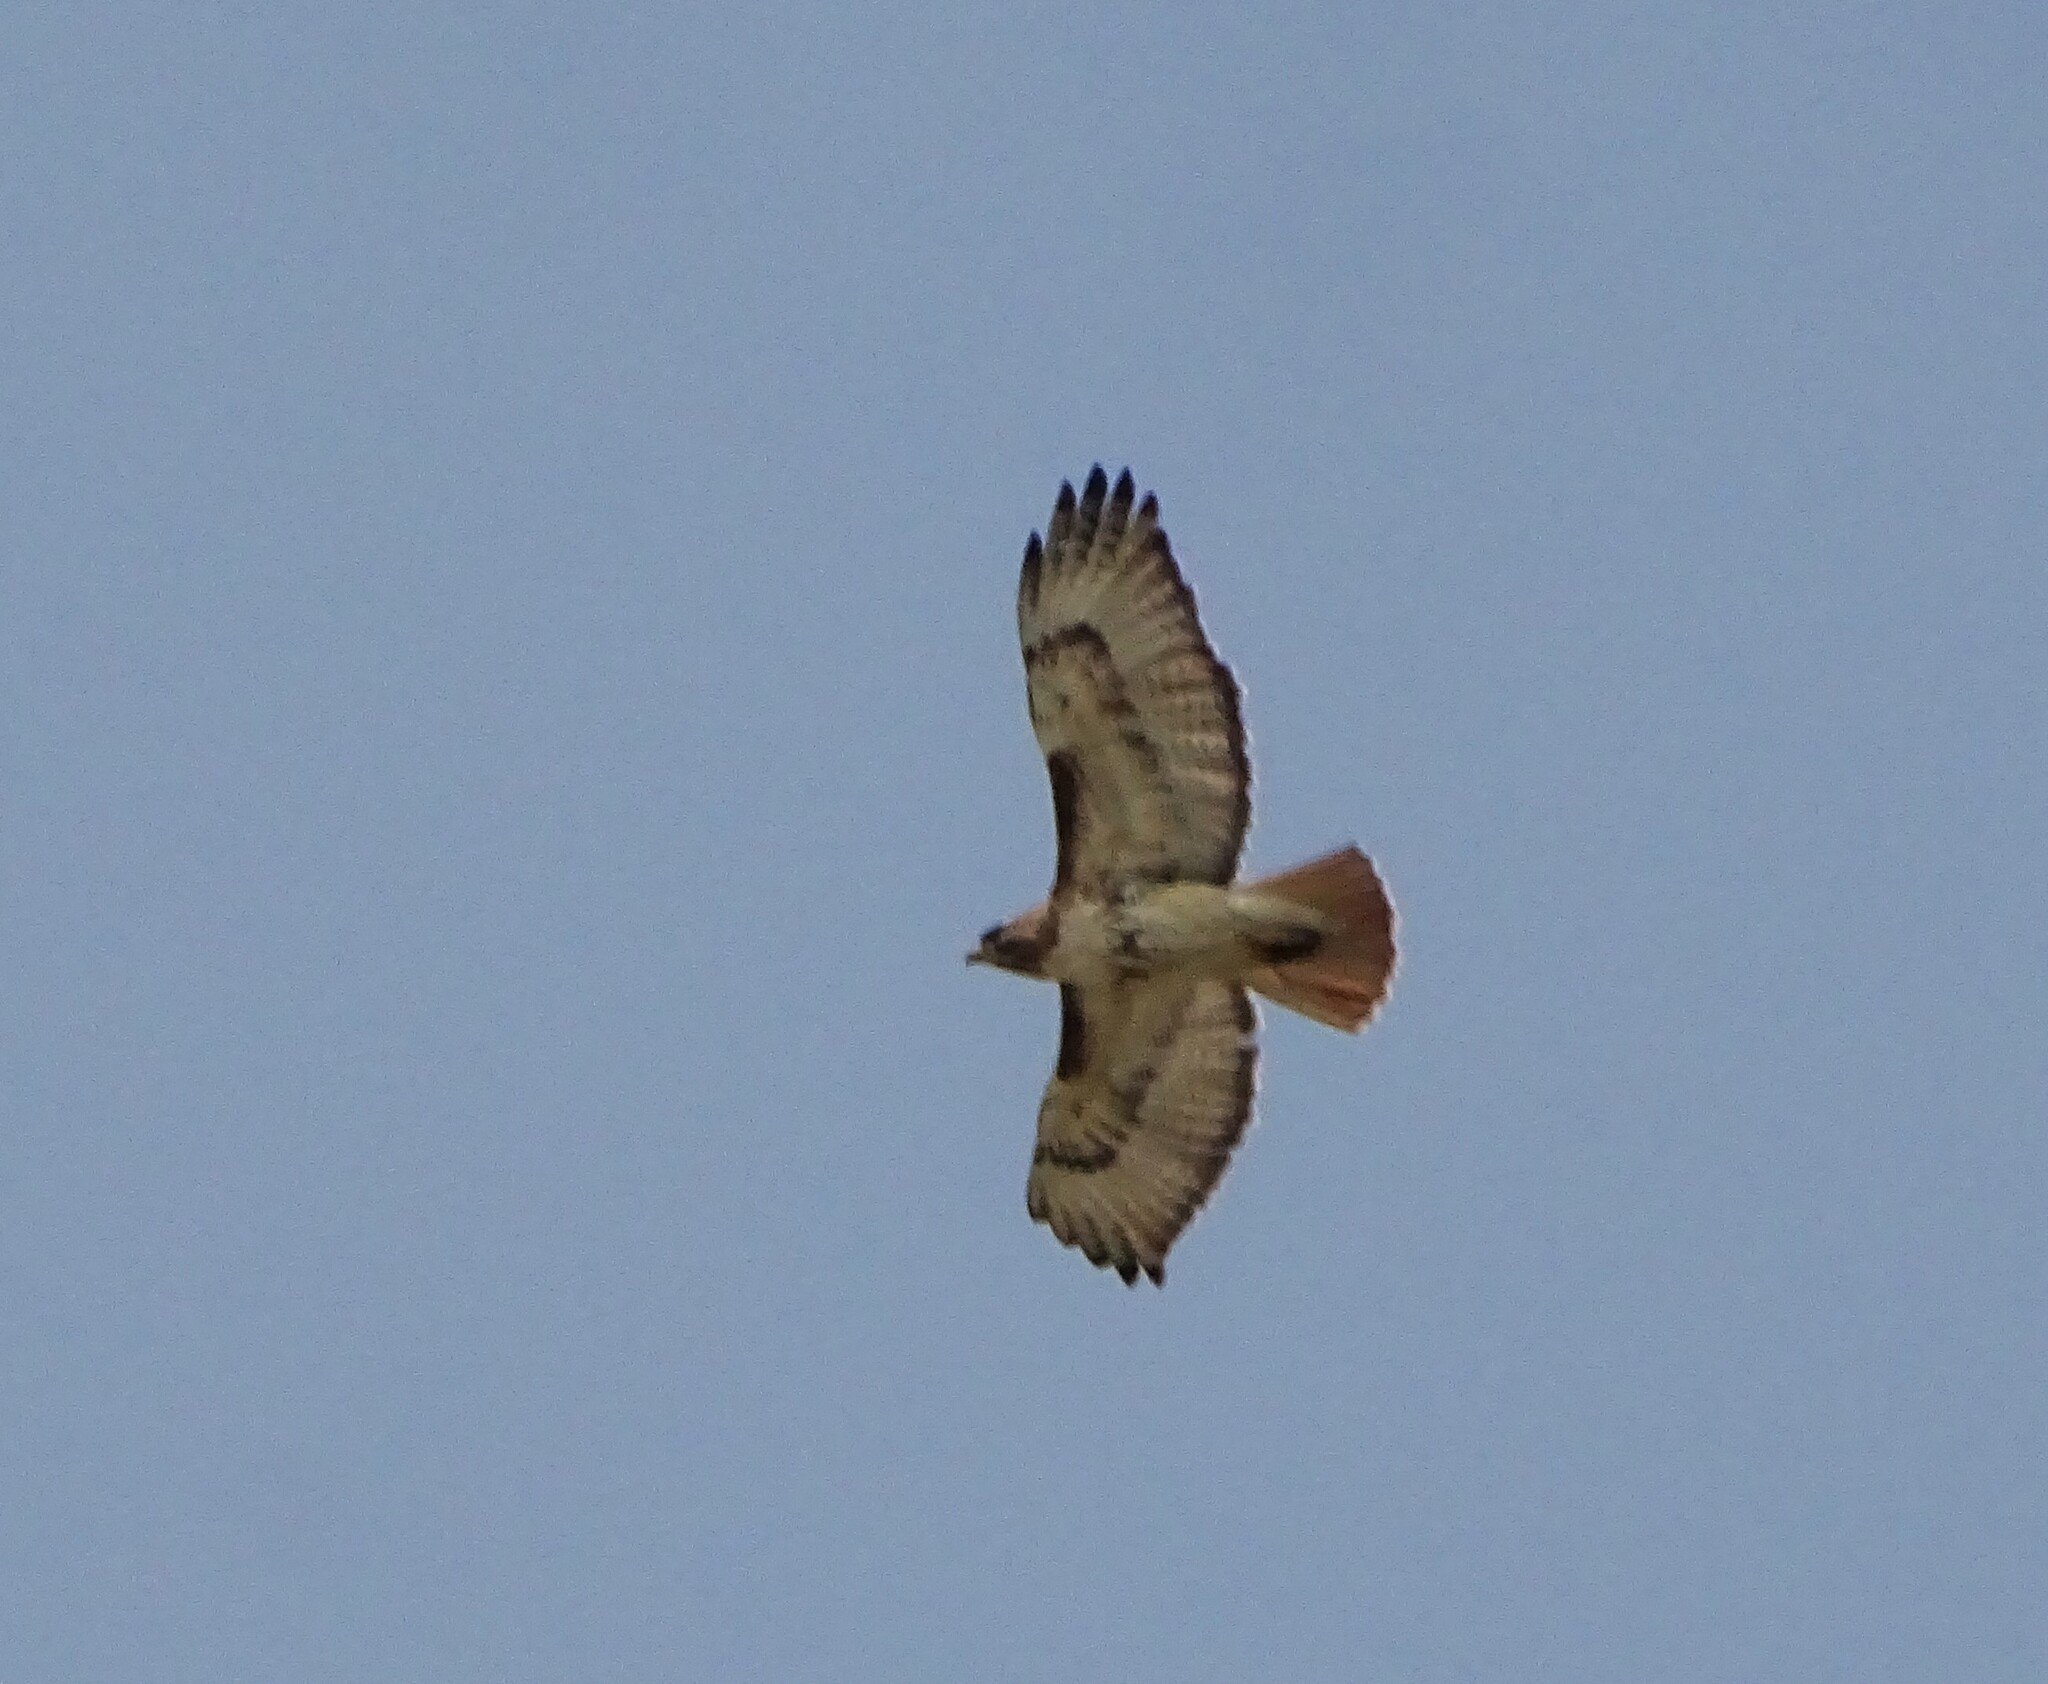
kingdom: Animalia
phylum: Chordata
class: Aves
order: Accipitriformes
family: Accipitridae
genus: Buteo
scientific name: Buteo jamaicensis
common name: Red-tailed hawk
